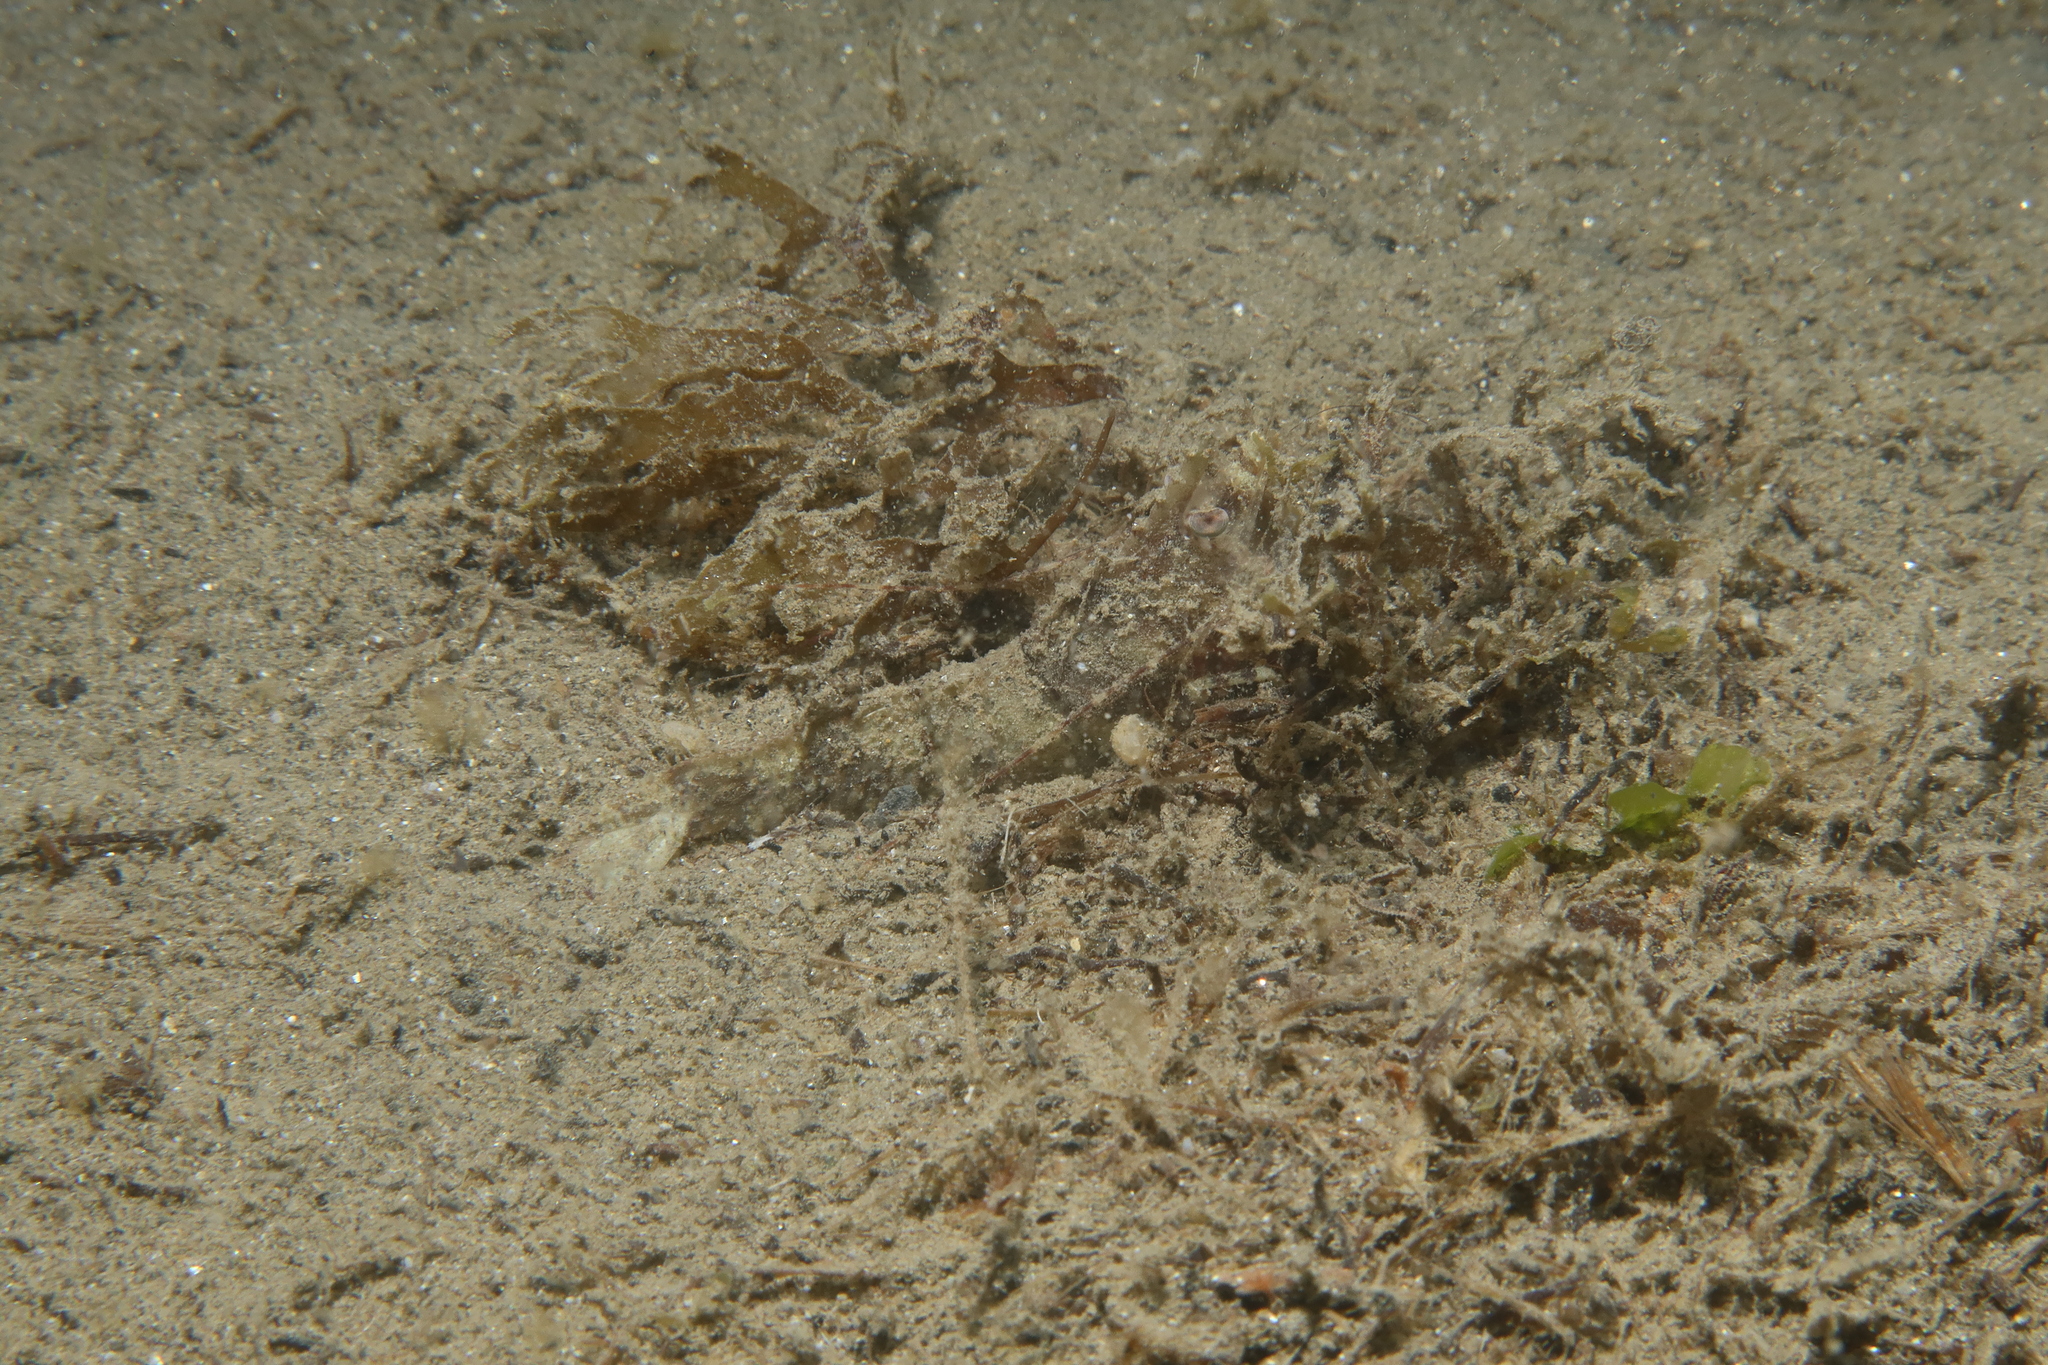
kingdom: Animalia
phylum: Arthropoda
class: Malacostraca
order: Decapoda
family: Sicyoniidae
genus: Sicyonia
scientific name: Sicyonia carinata
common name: Mediterranean rock shrimp
